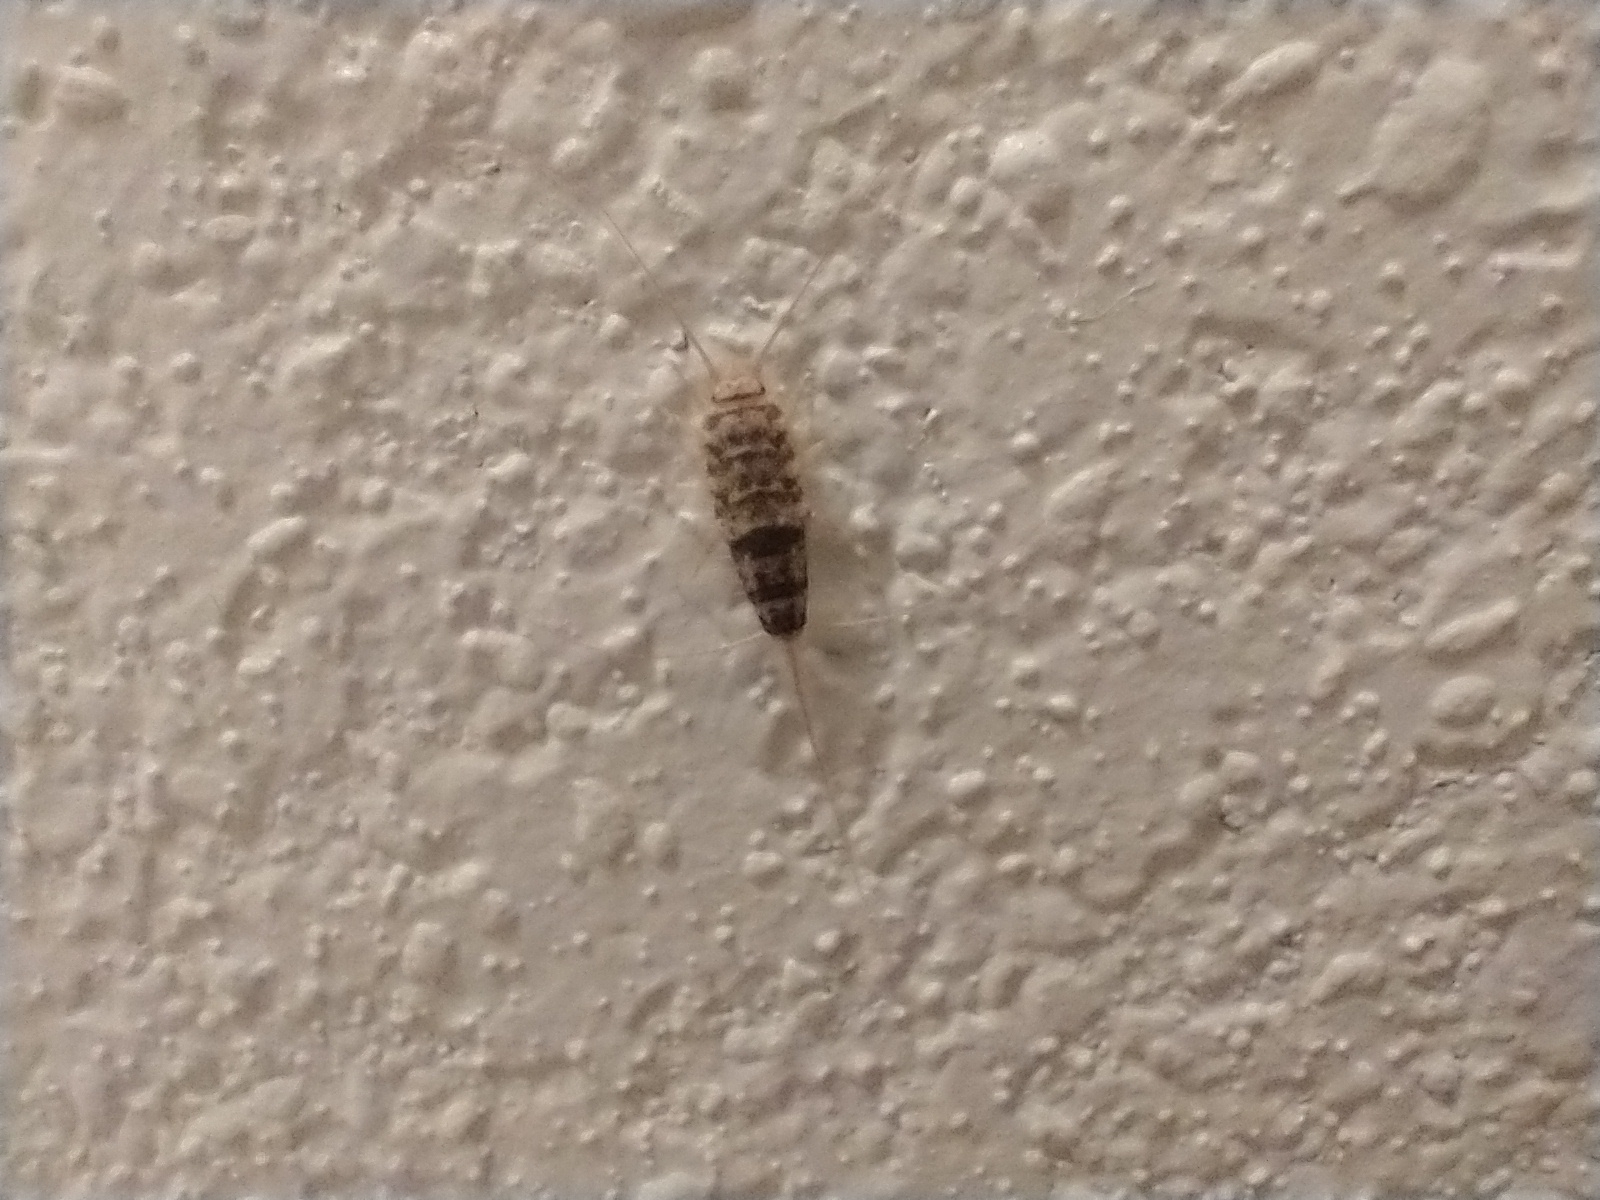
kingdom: Animalia
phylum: Arthropoda
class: Insecta
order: Zygentoma
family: Lepismatidae
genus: Thermobia
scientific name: Thermobia domestica
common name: Firebrat
